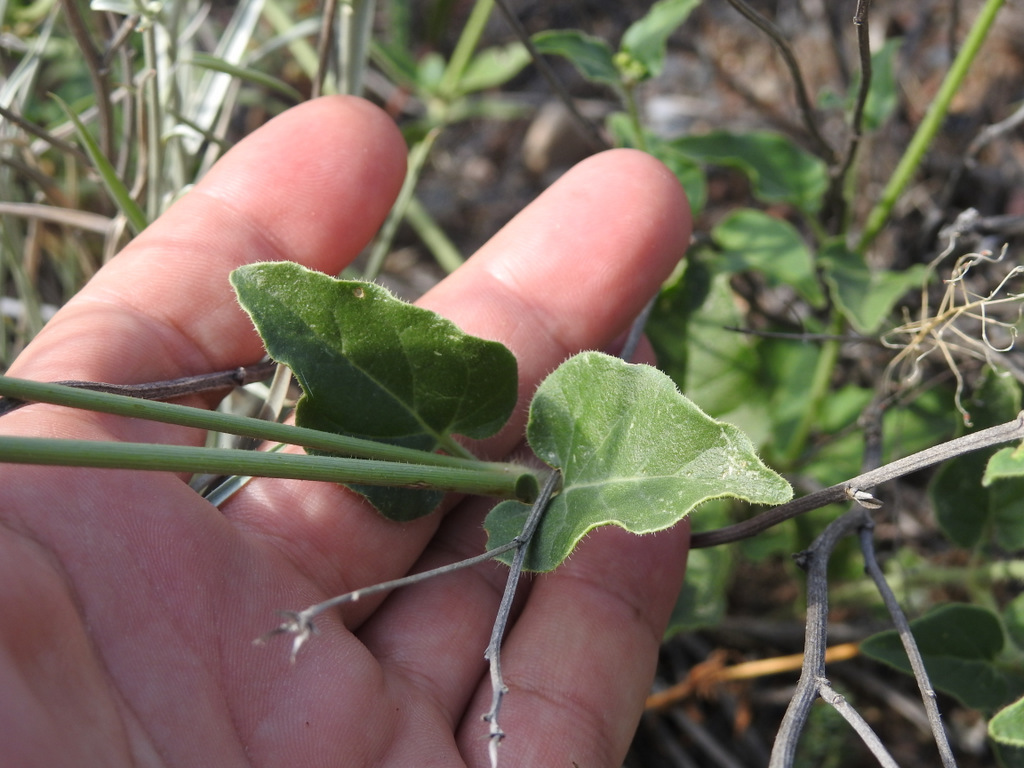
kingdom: Plantae
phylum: Tracheophyta
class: Magnoliopsida
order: Caryophyllales
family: Nyctaginaceae
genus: Mirabilis
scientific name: Mirabilis ovata
